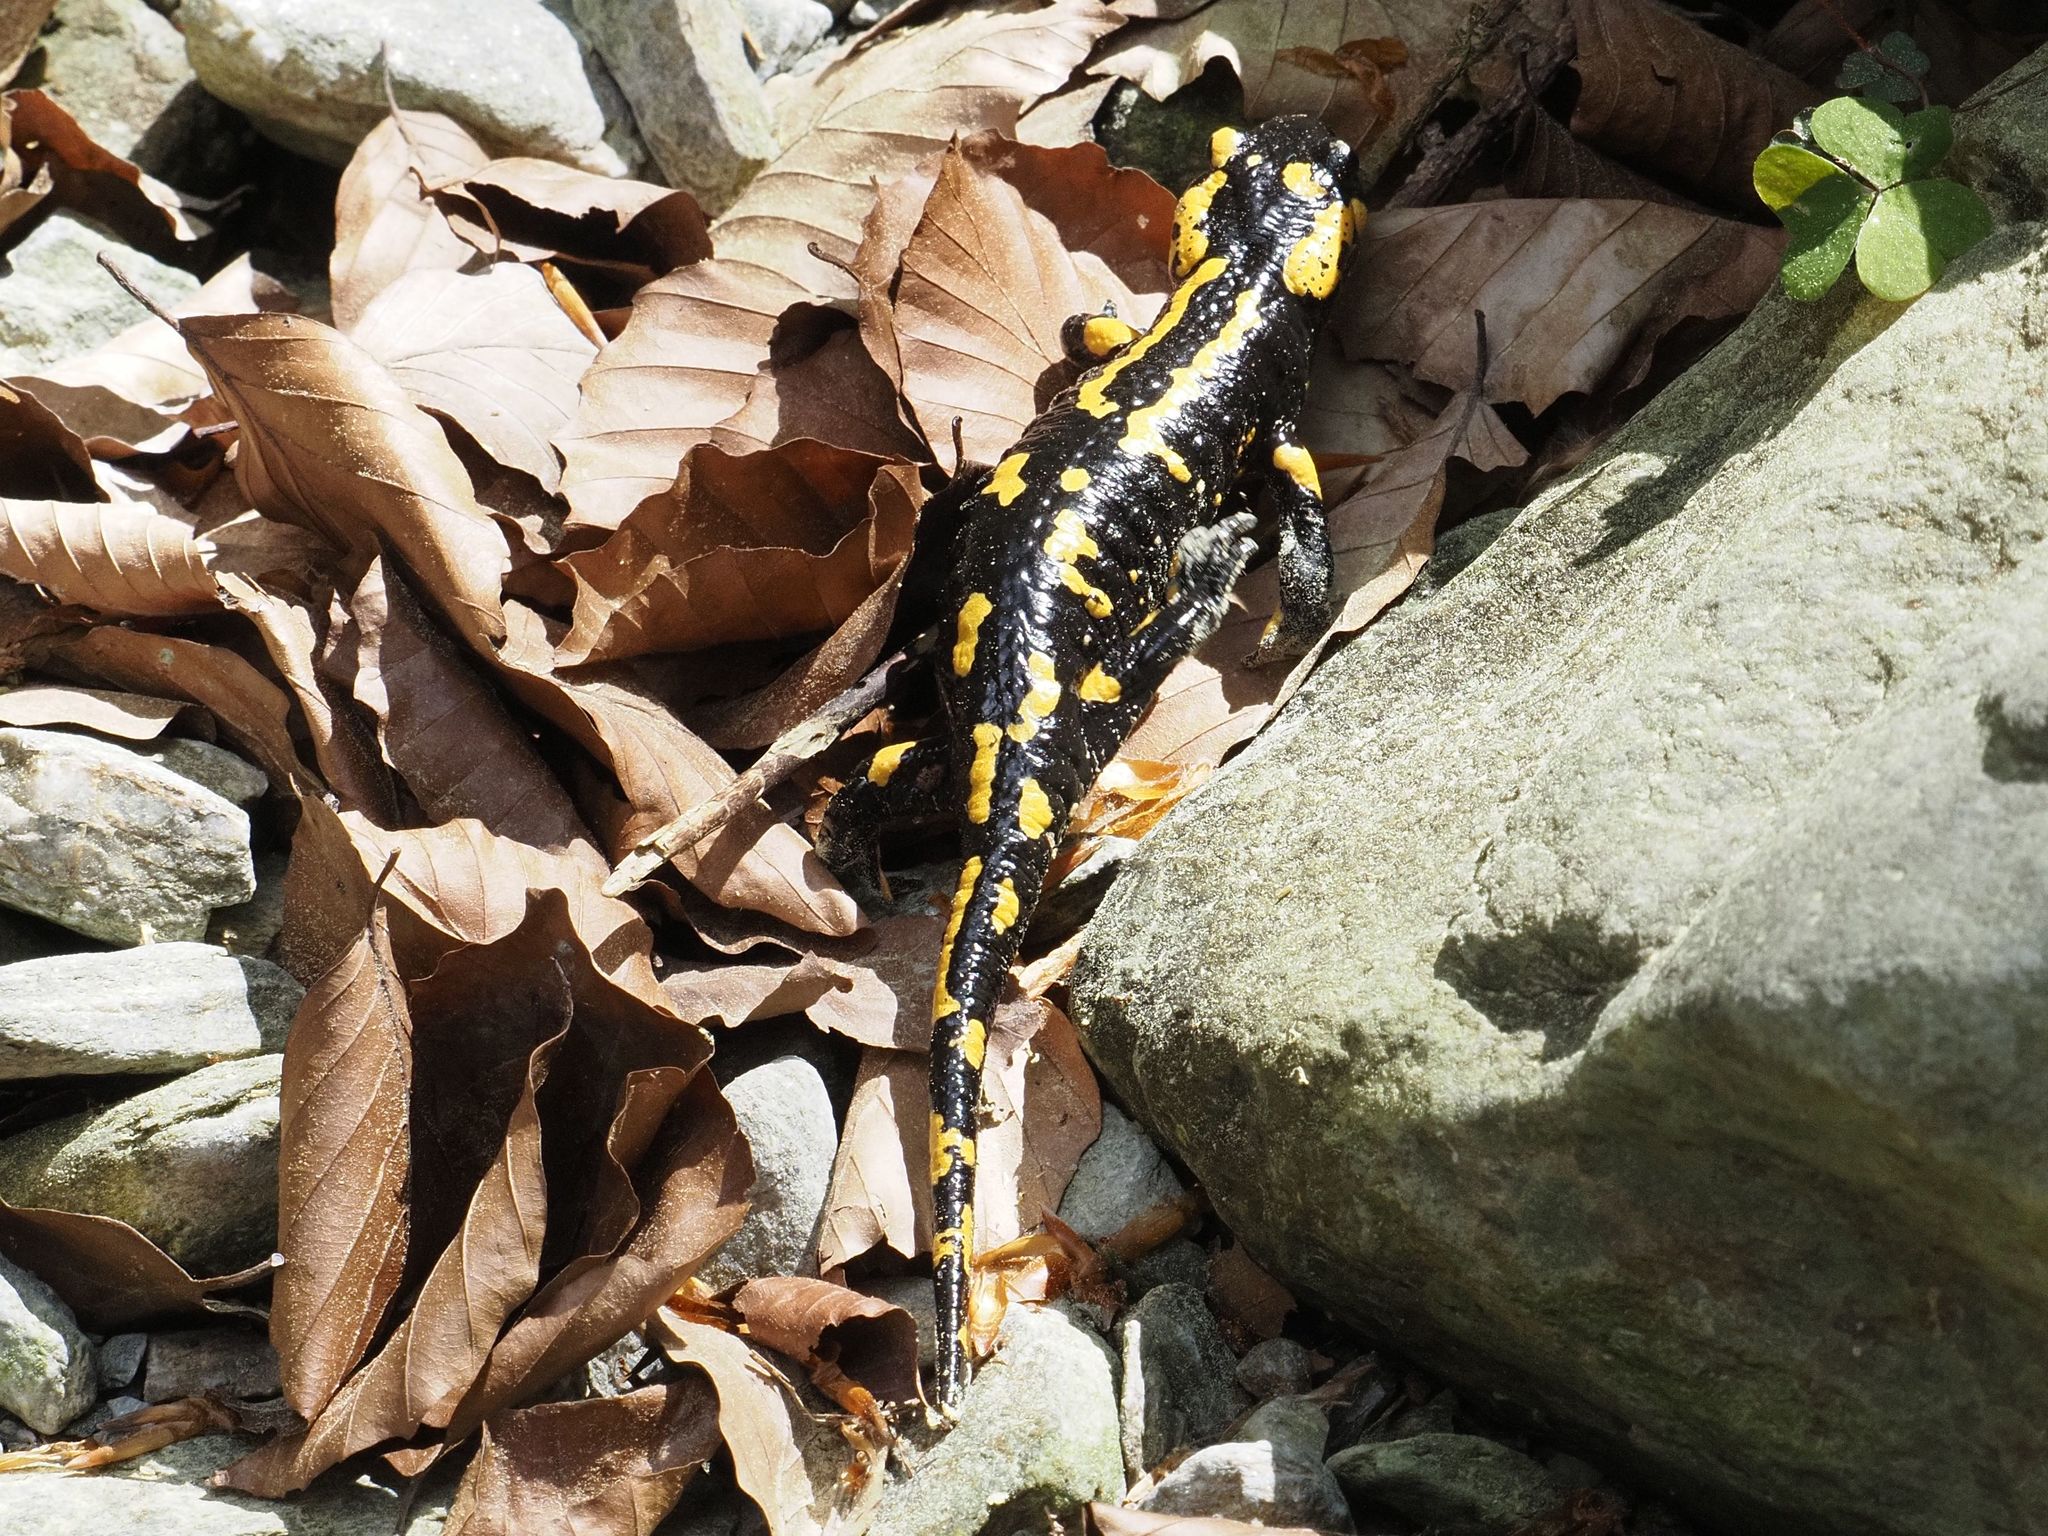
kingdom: Animalia
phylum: Chordata
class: Amphibia
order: Caudata
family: Salamandridae
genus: Salamandra
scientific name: Salamandra salamandra
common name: Fire salamander
